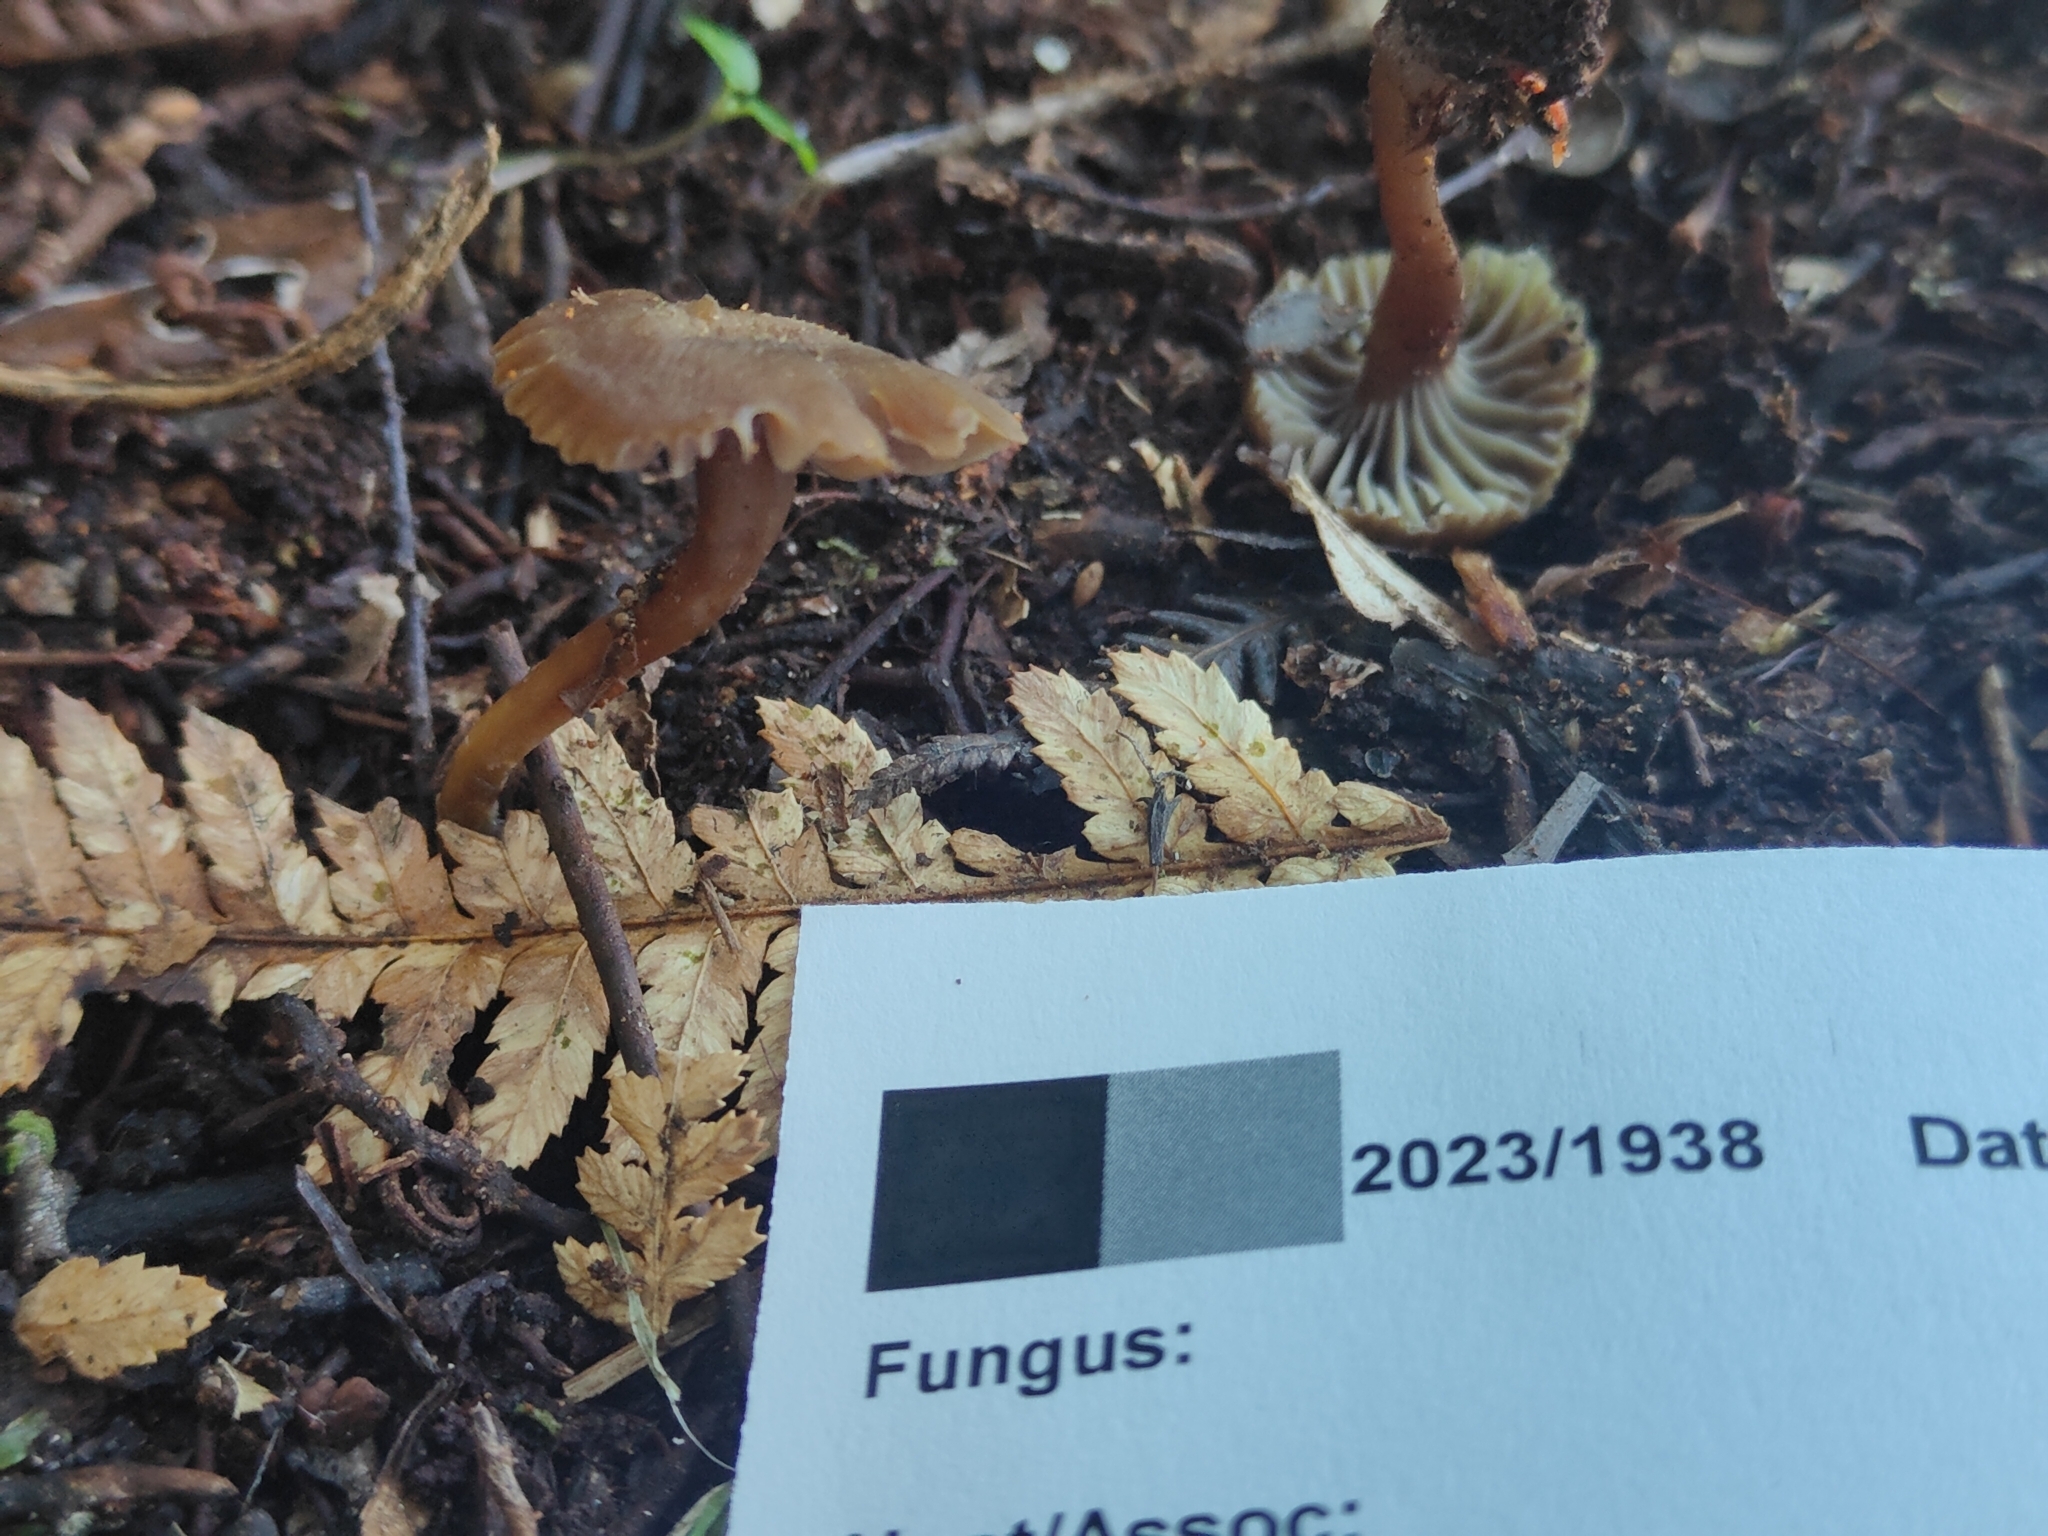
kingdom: Fungi
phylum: Basidiomycota
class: Agaricomycetes
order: Agaricales
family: Hygrophoraceae
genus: Hygrocybe
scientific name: Hygrocybe keithgeorgei
